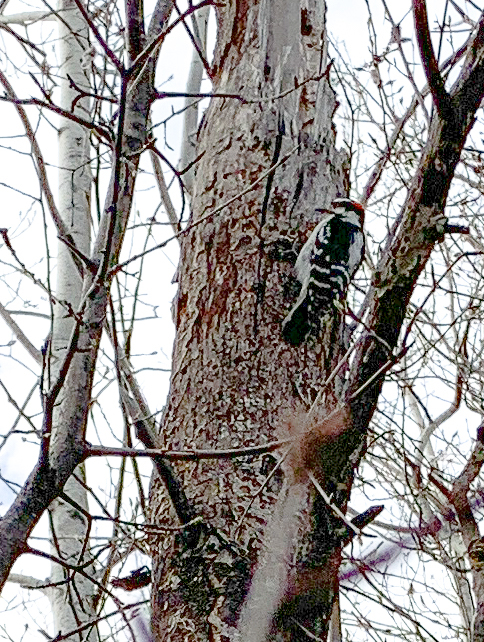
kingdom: Animalia
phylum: Chordata
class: Aves
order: Piciformes
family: Picidae
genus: Leuconotopicus
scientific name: Leuconotopicus villosus
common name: Hairy woodpecker
